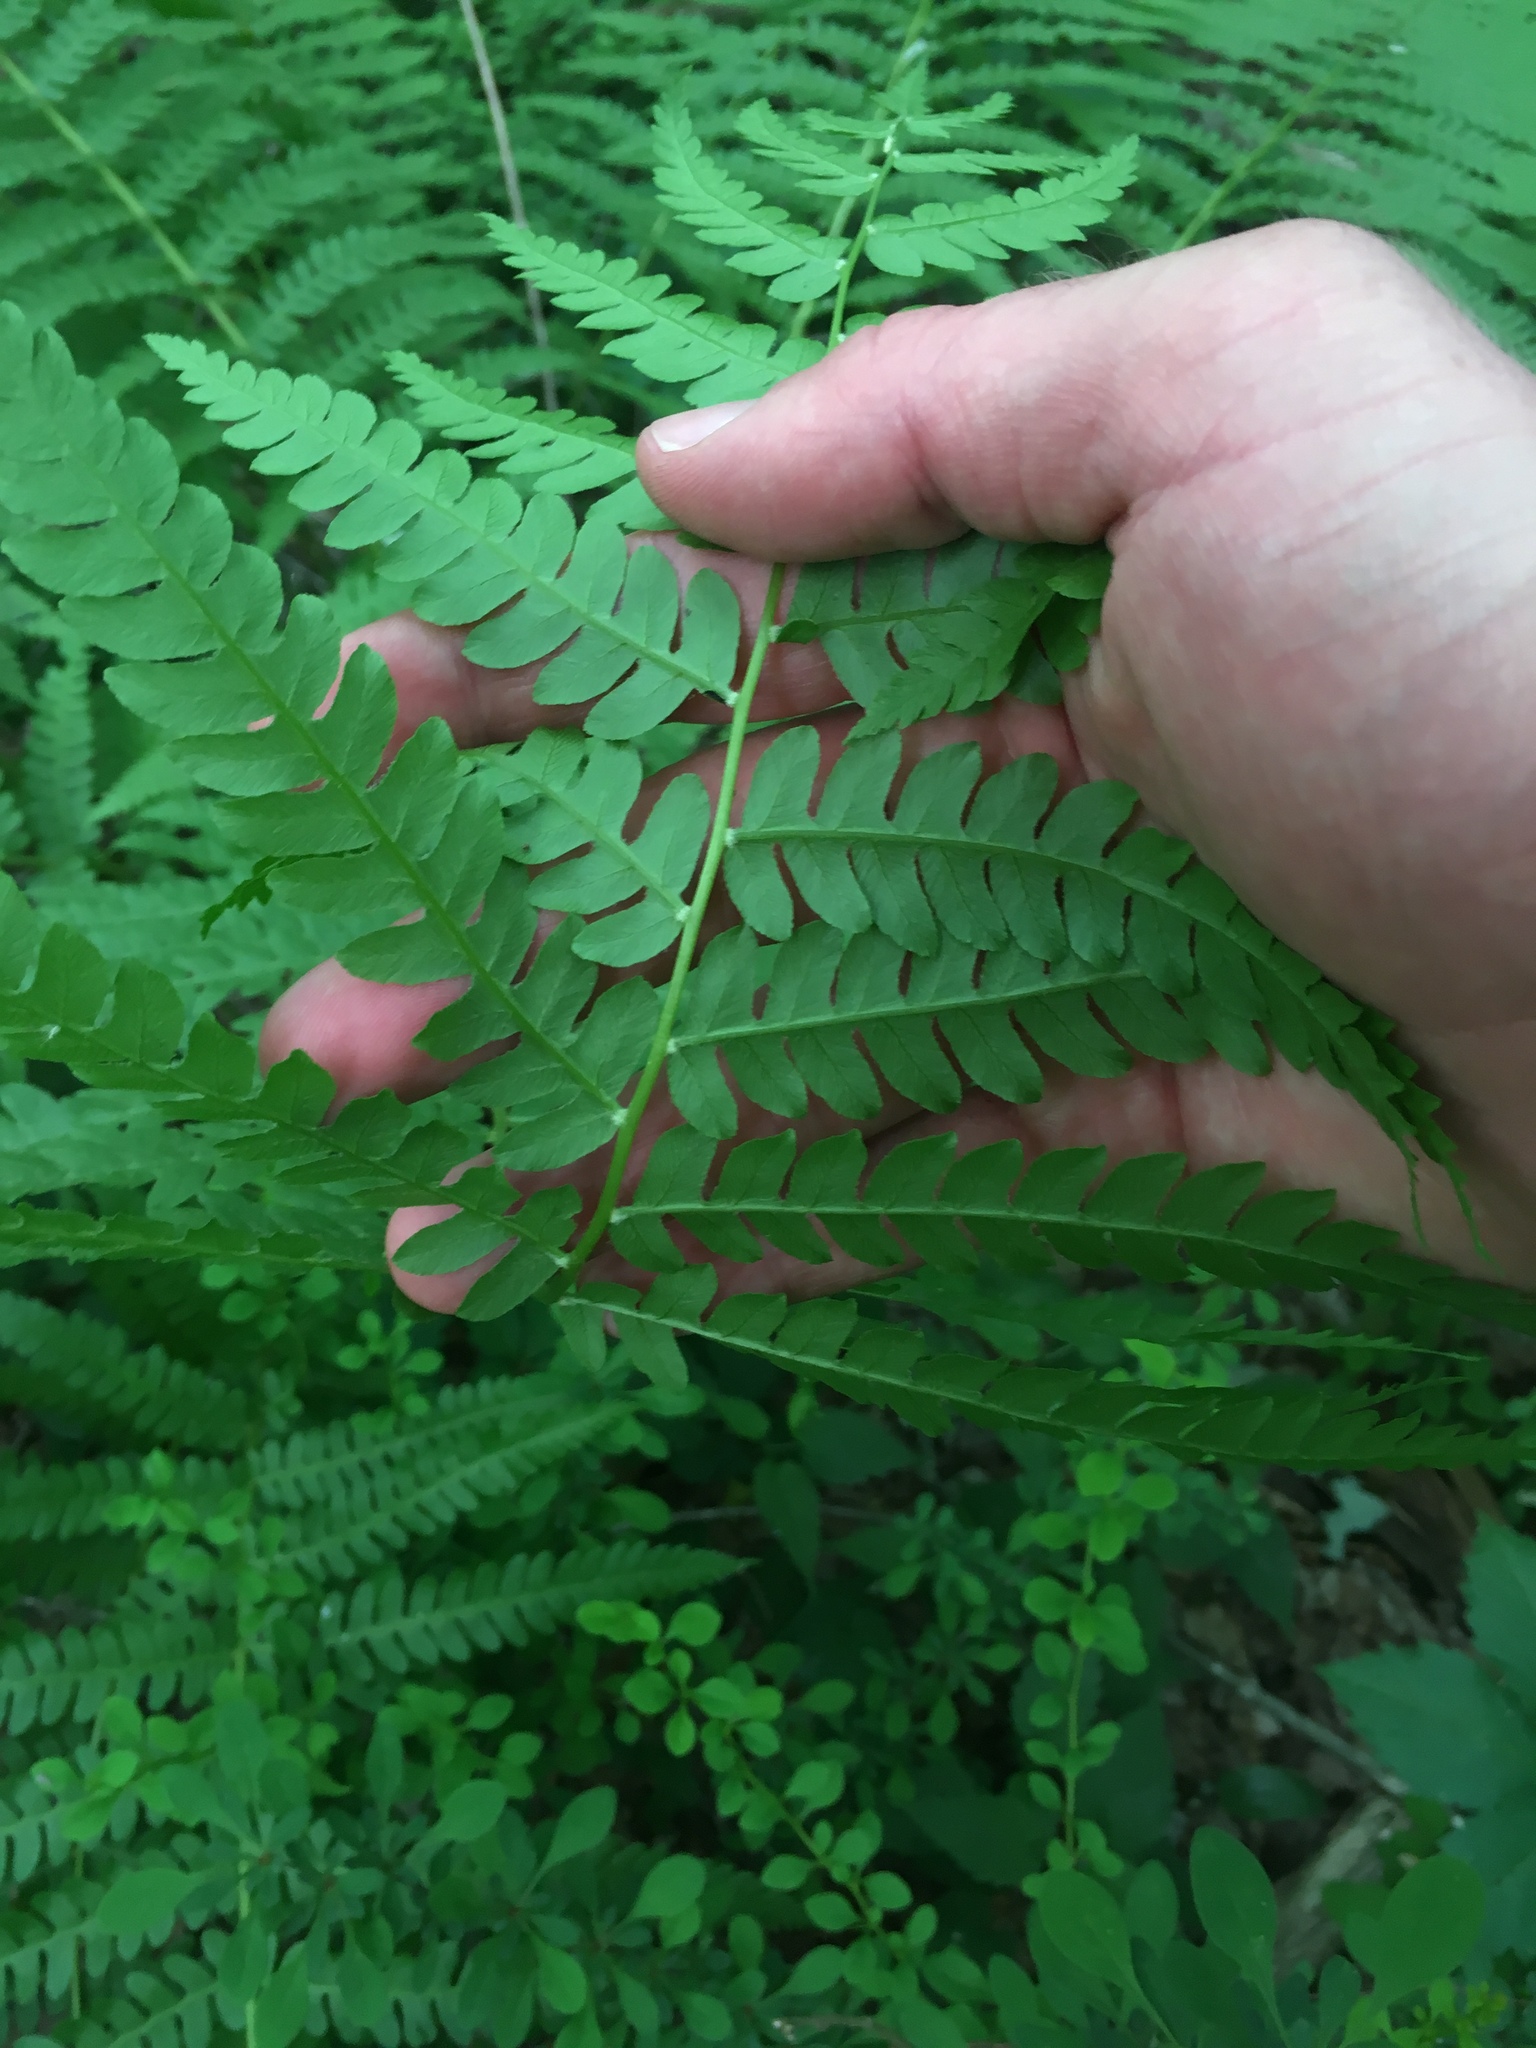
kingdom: Plantae
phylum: Tracheophyta
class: Polypodiopsida
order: Osmundales
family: Osmundaceae
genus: Osmundastrum
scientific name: Osmundastrum cinnamomeum
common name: Cinnamon fern
